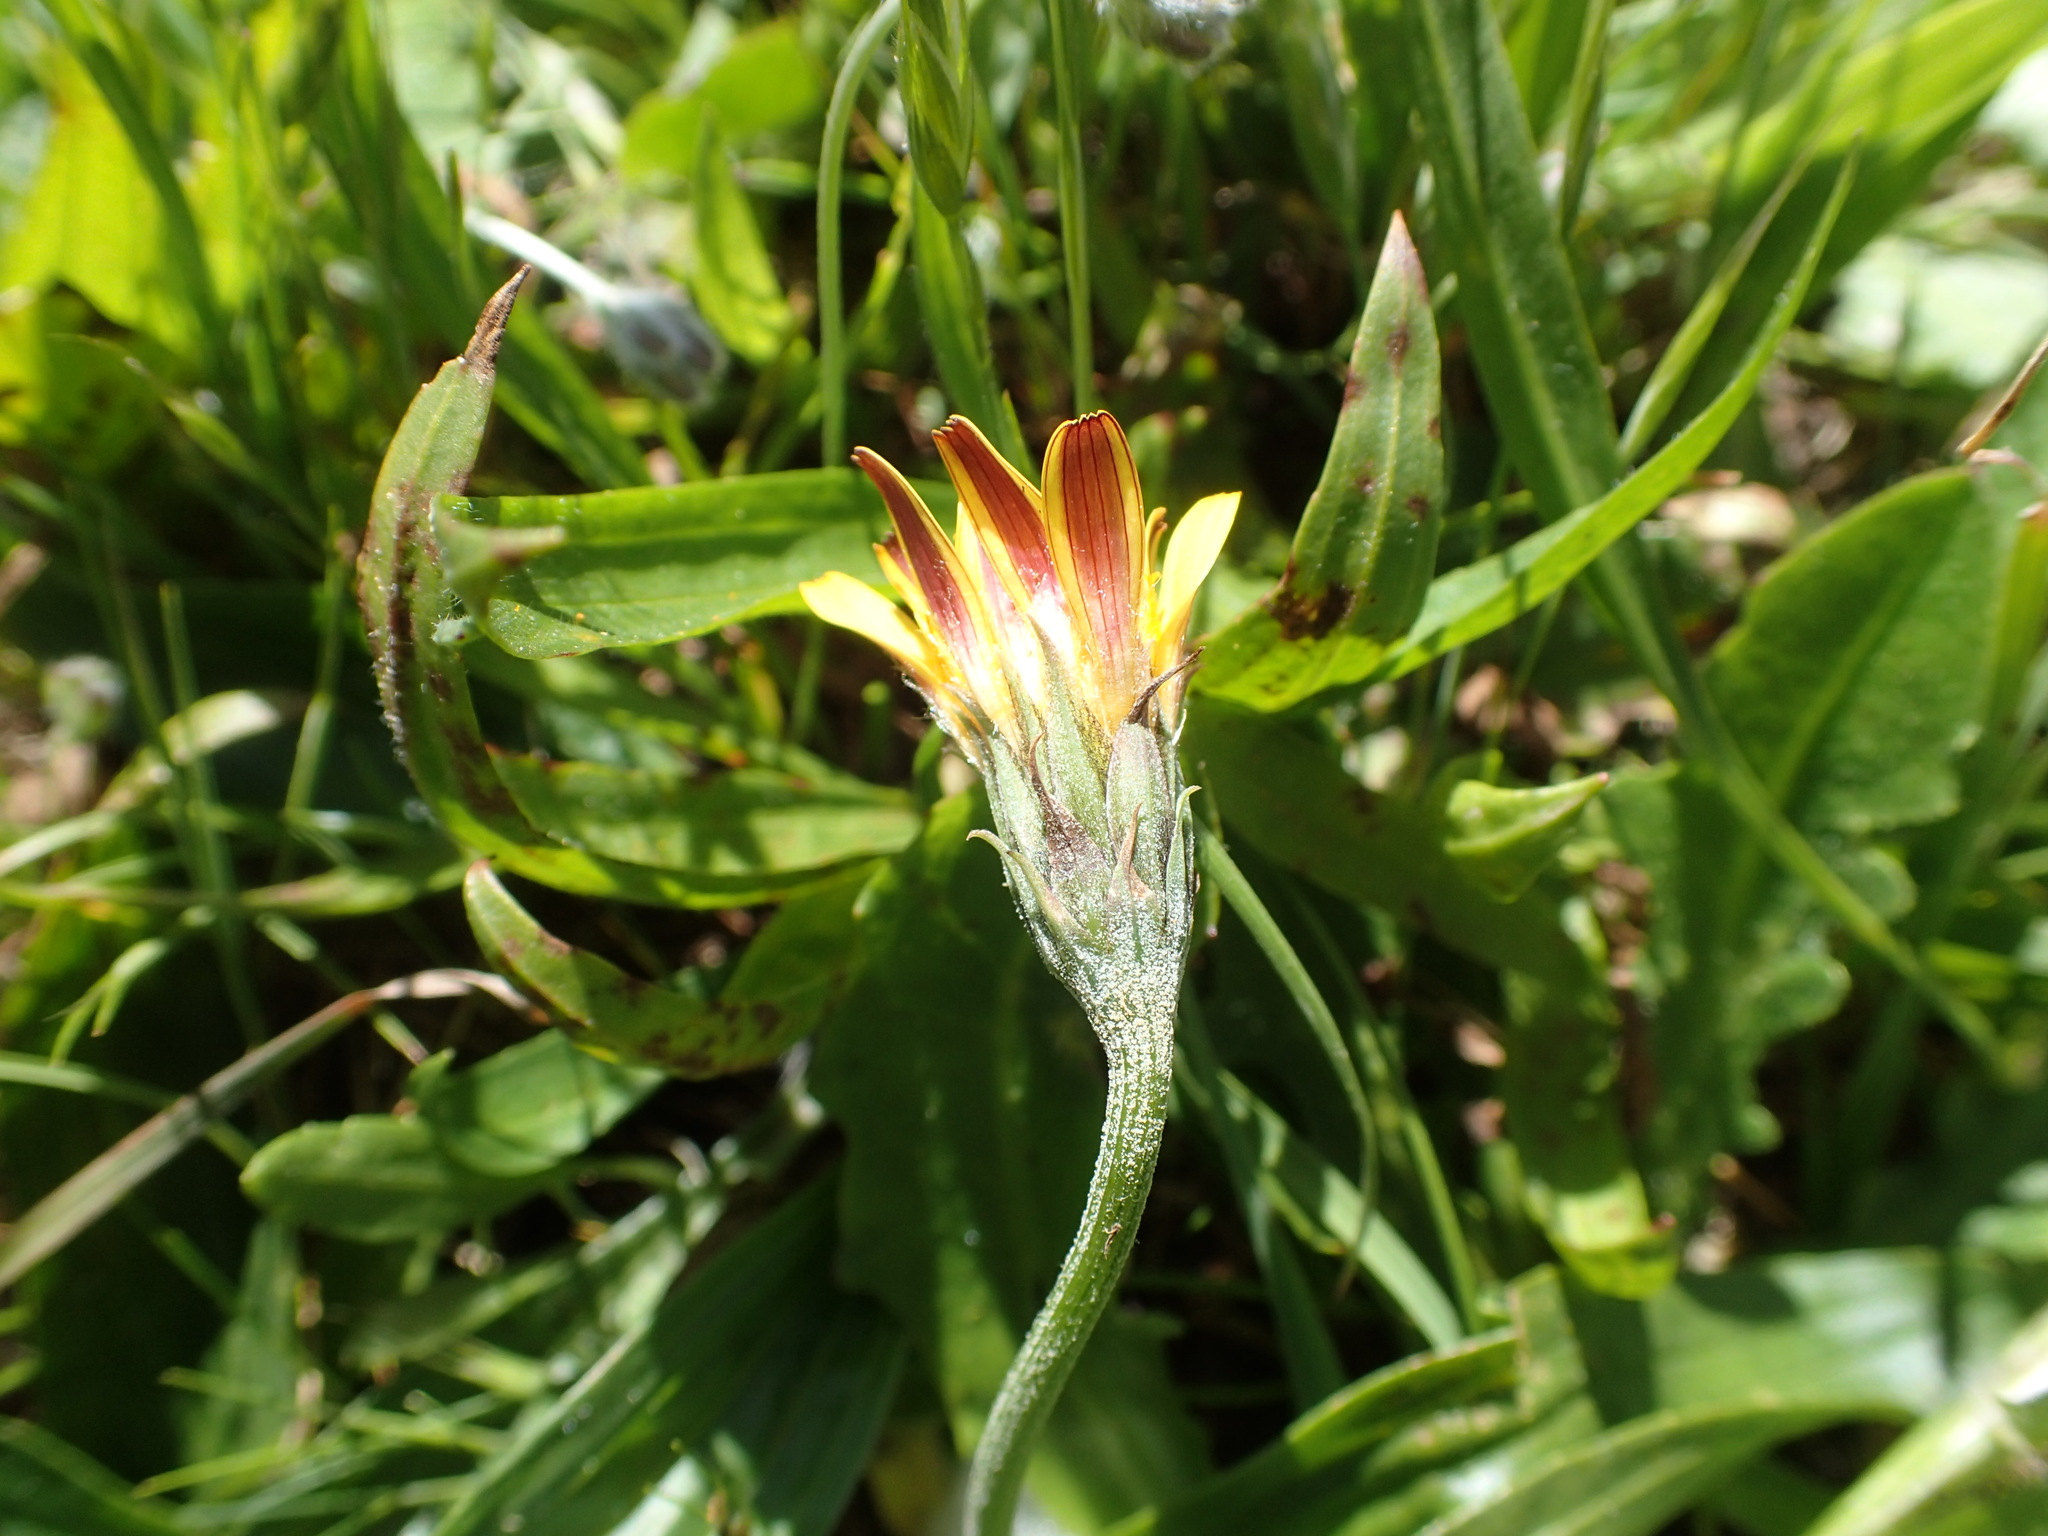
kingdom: Plantae
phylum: Tracheophyta
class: Magnoliopsida
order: Asterales
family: Asteraceae
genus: Microseris
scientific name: Microseris paludosa
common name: Marsh silverpuffs
